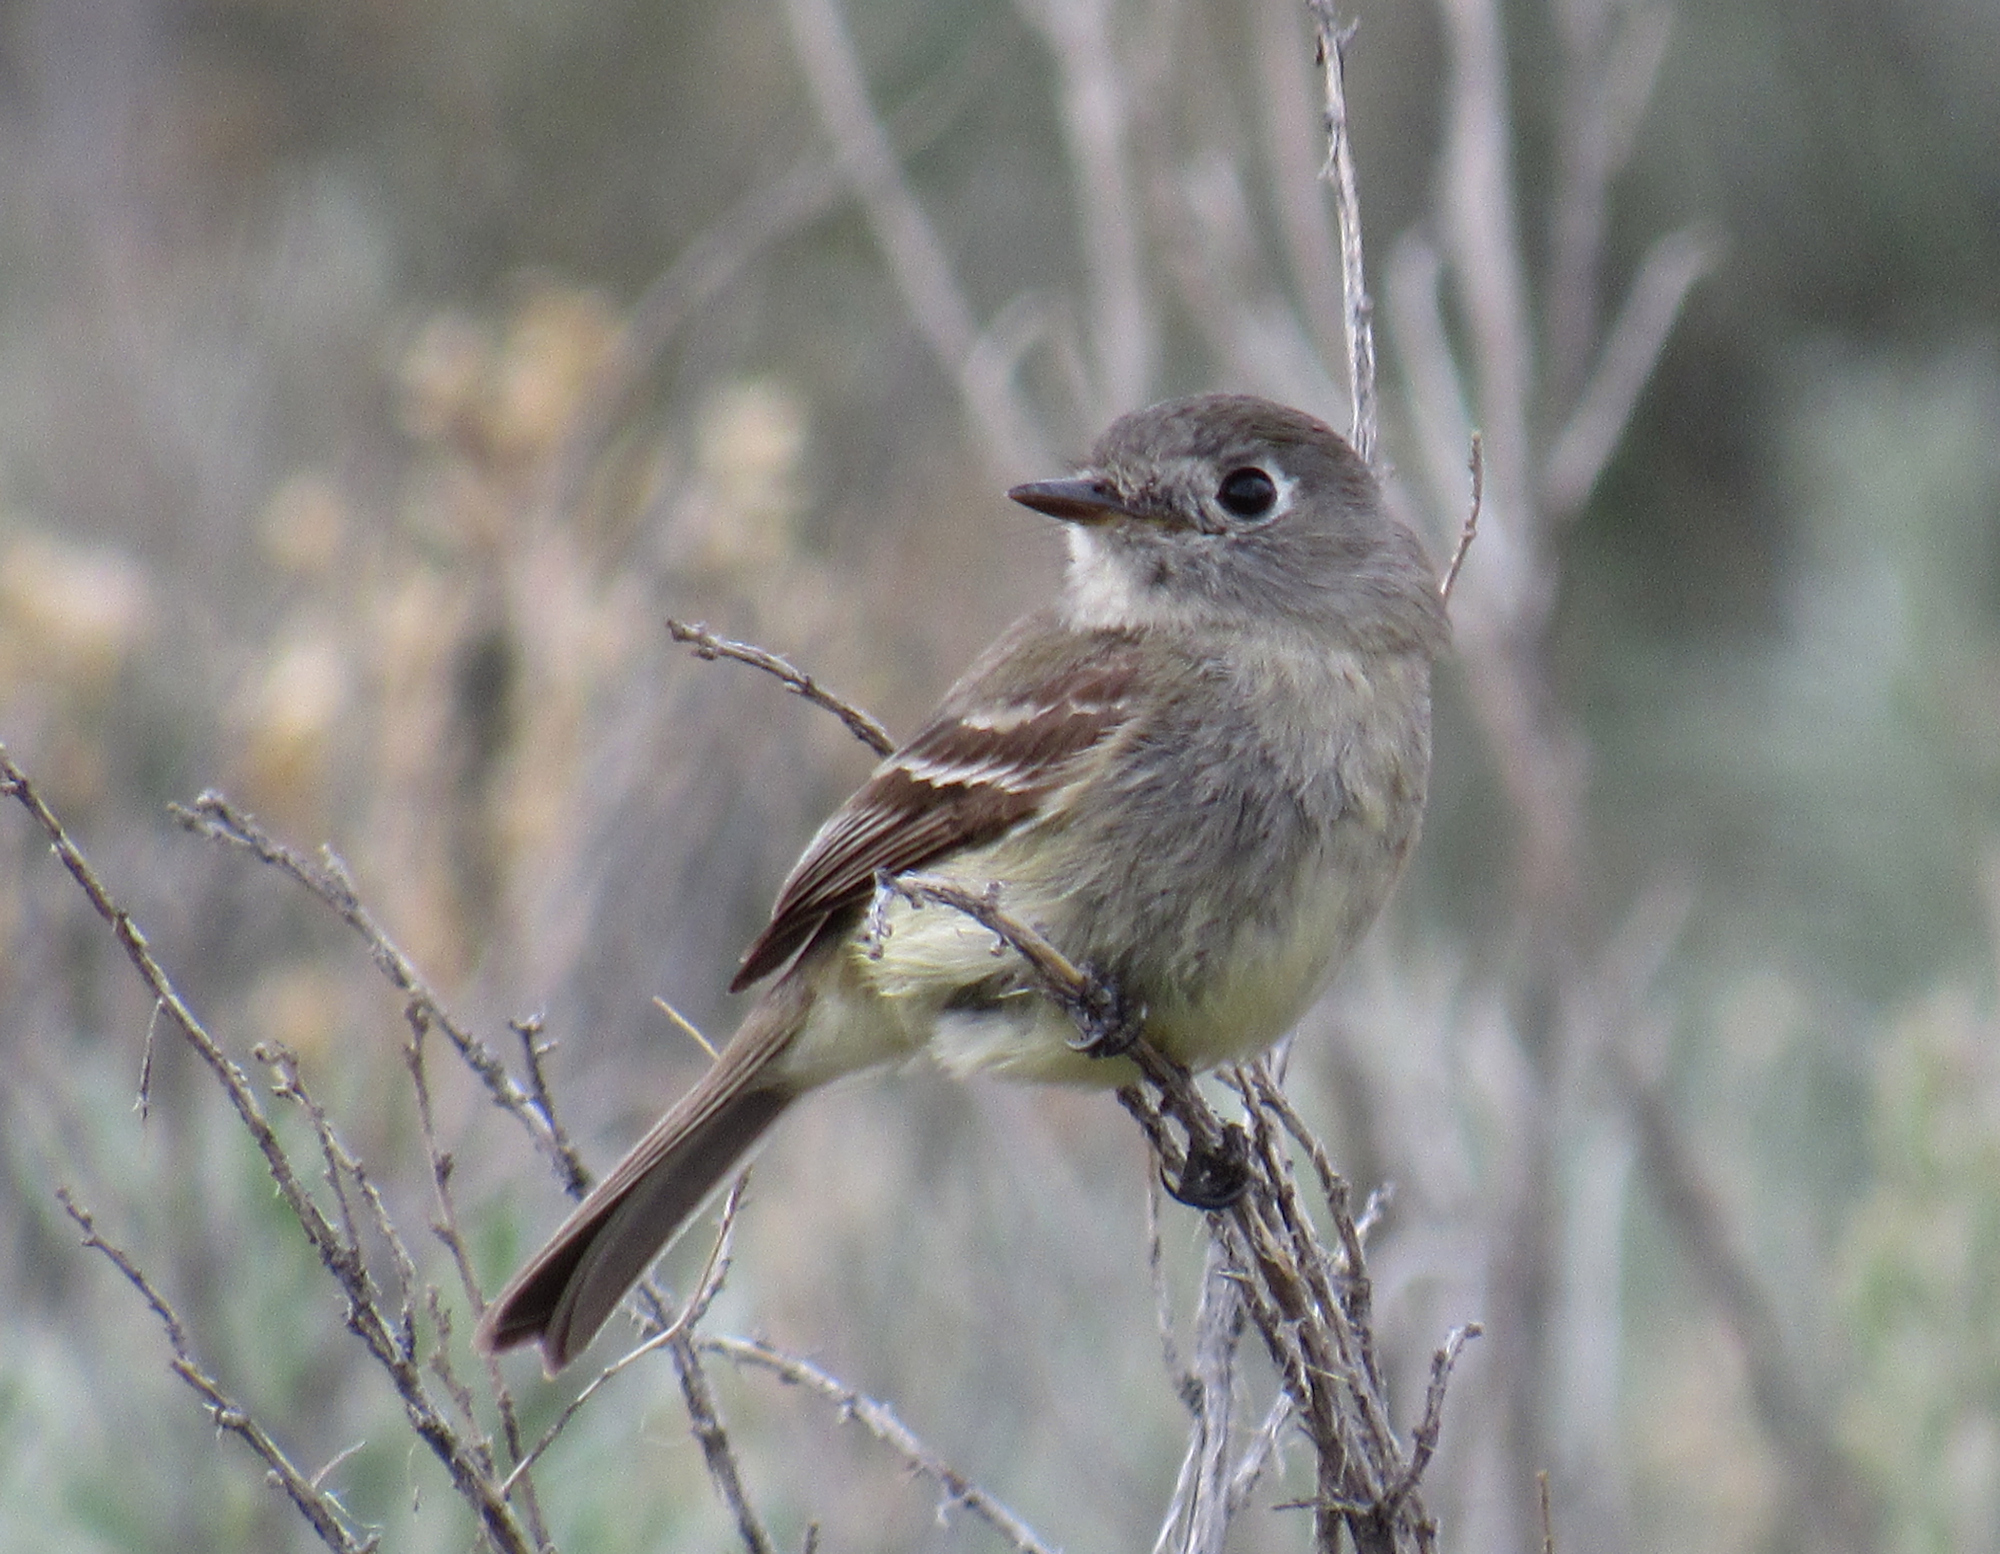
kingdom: Animalia
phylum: Chordata
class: Aves
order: Passeriformes
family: Tyrannidae
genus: Empidonax
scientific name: Empidonax oberholseri
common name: Dusky flycatcher
